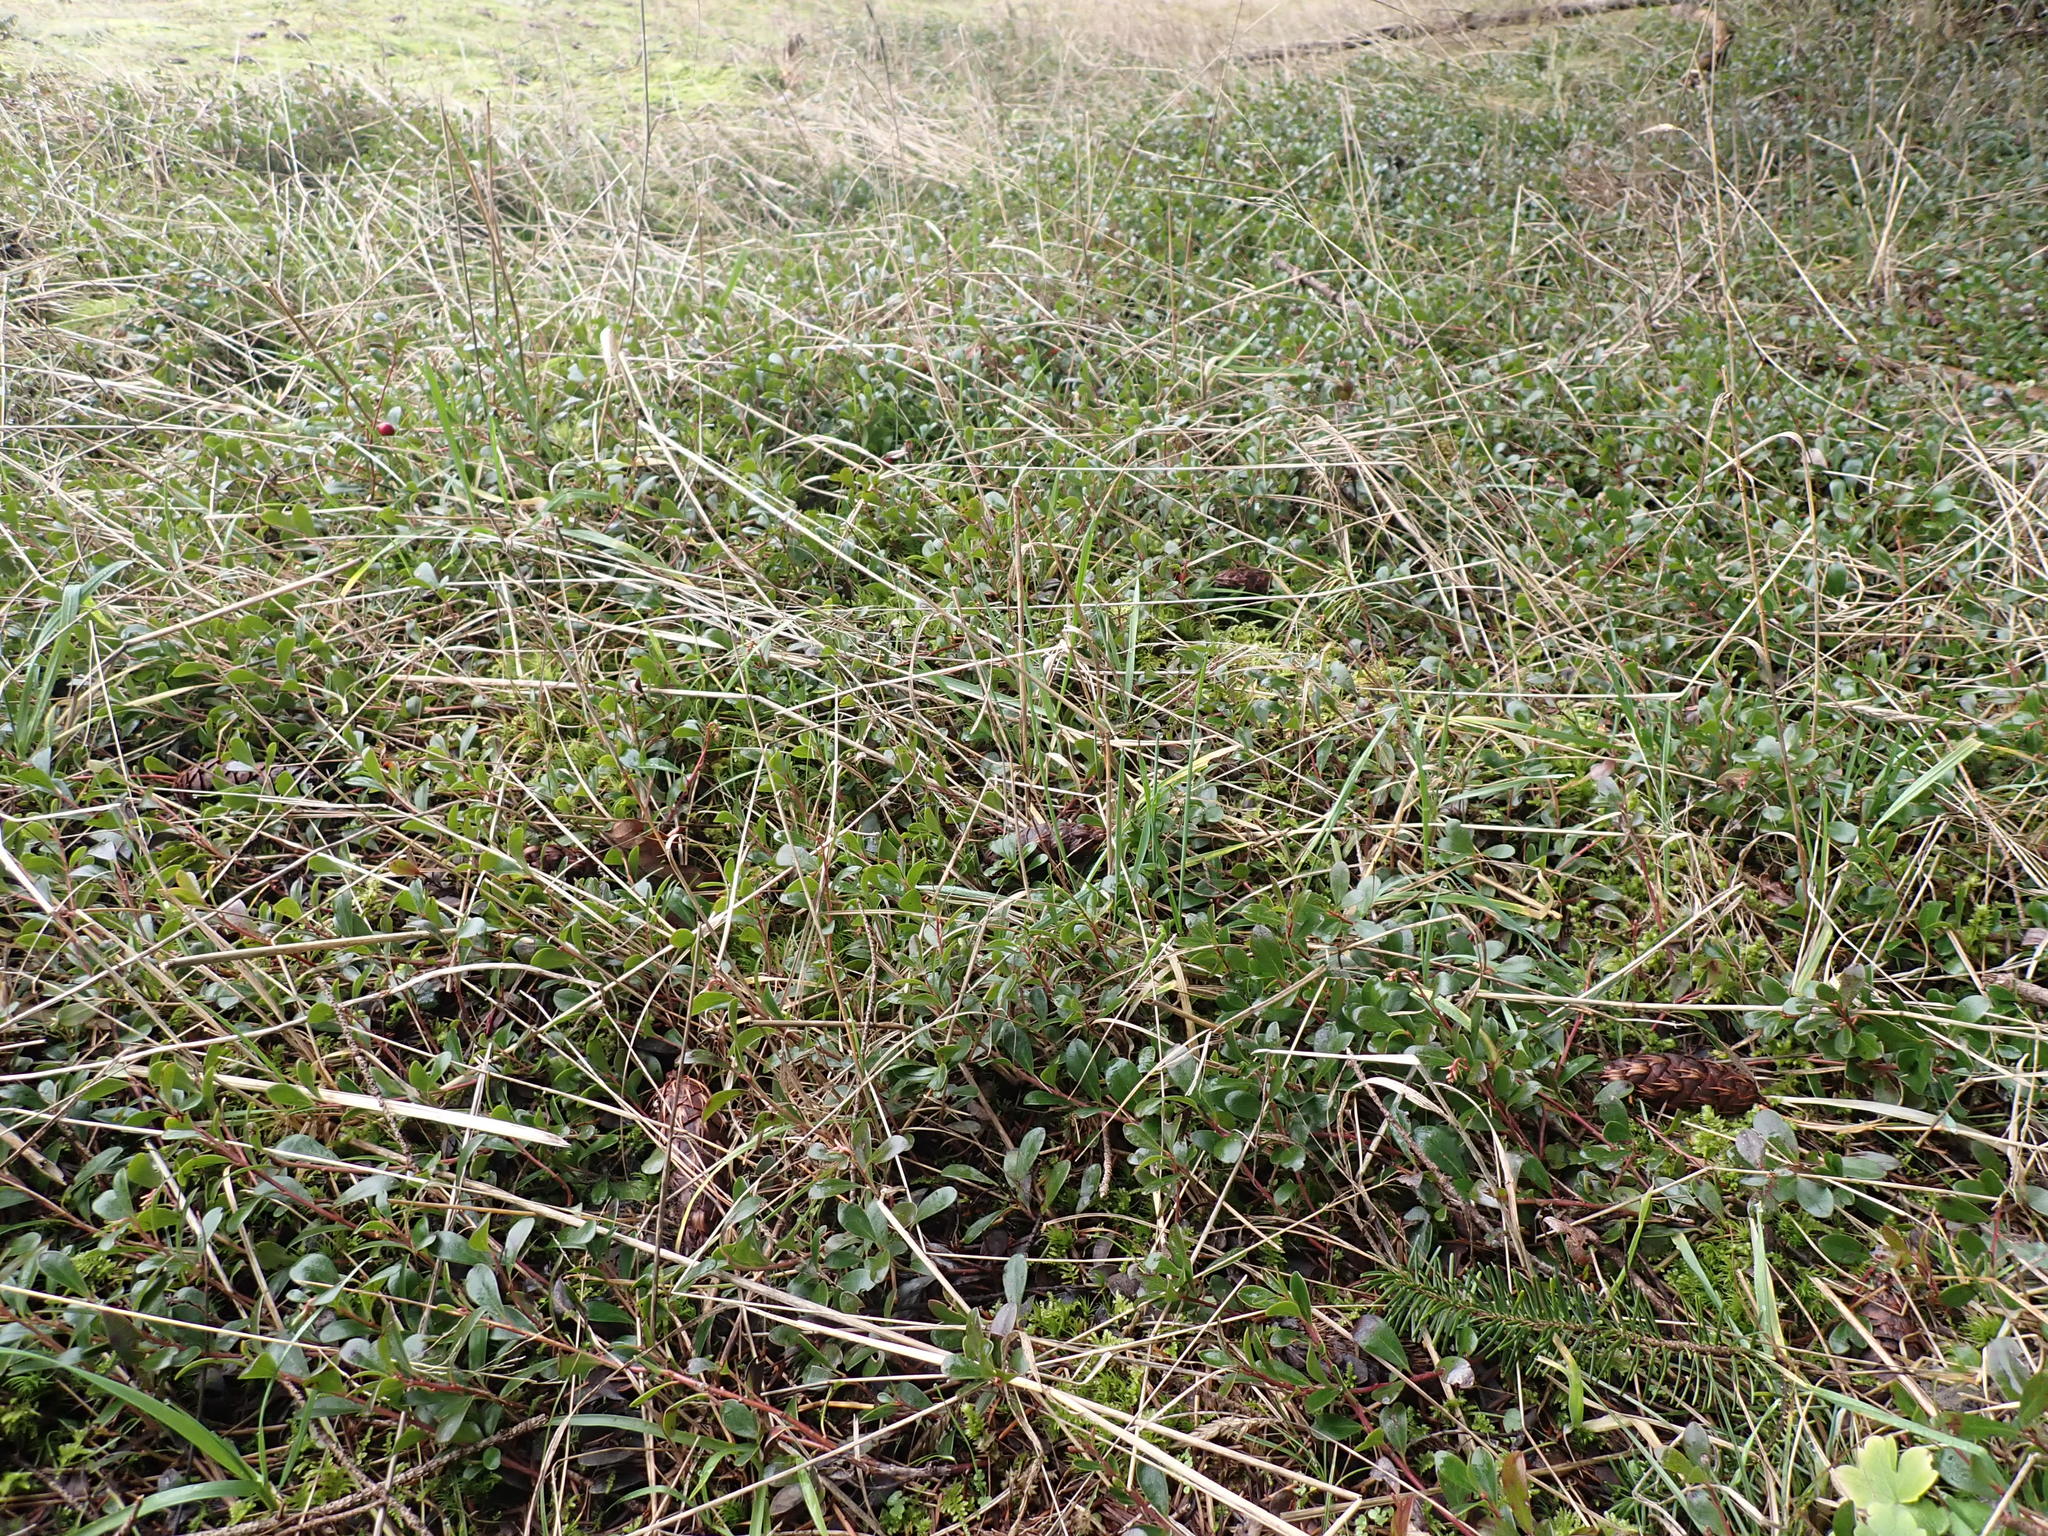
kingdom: Plantae
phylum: Tracheophyta
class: Magnoliopsida
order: Ericales
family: Ericaceae
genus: Arctostaphylos
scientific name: Arctostaphylos uva-ursi
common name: Bearberry
